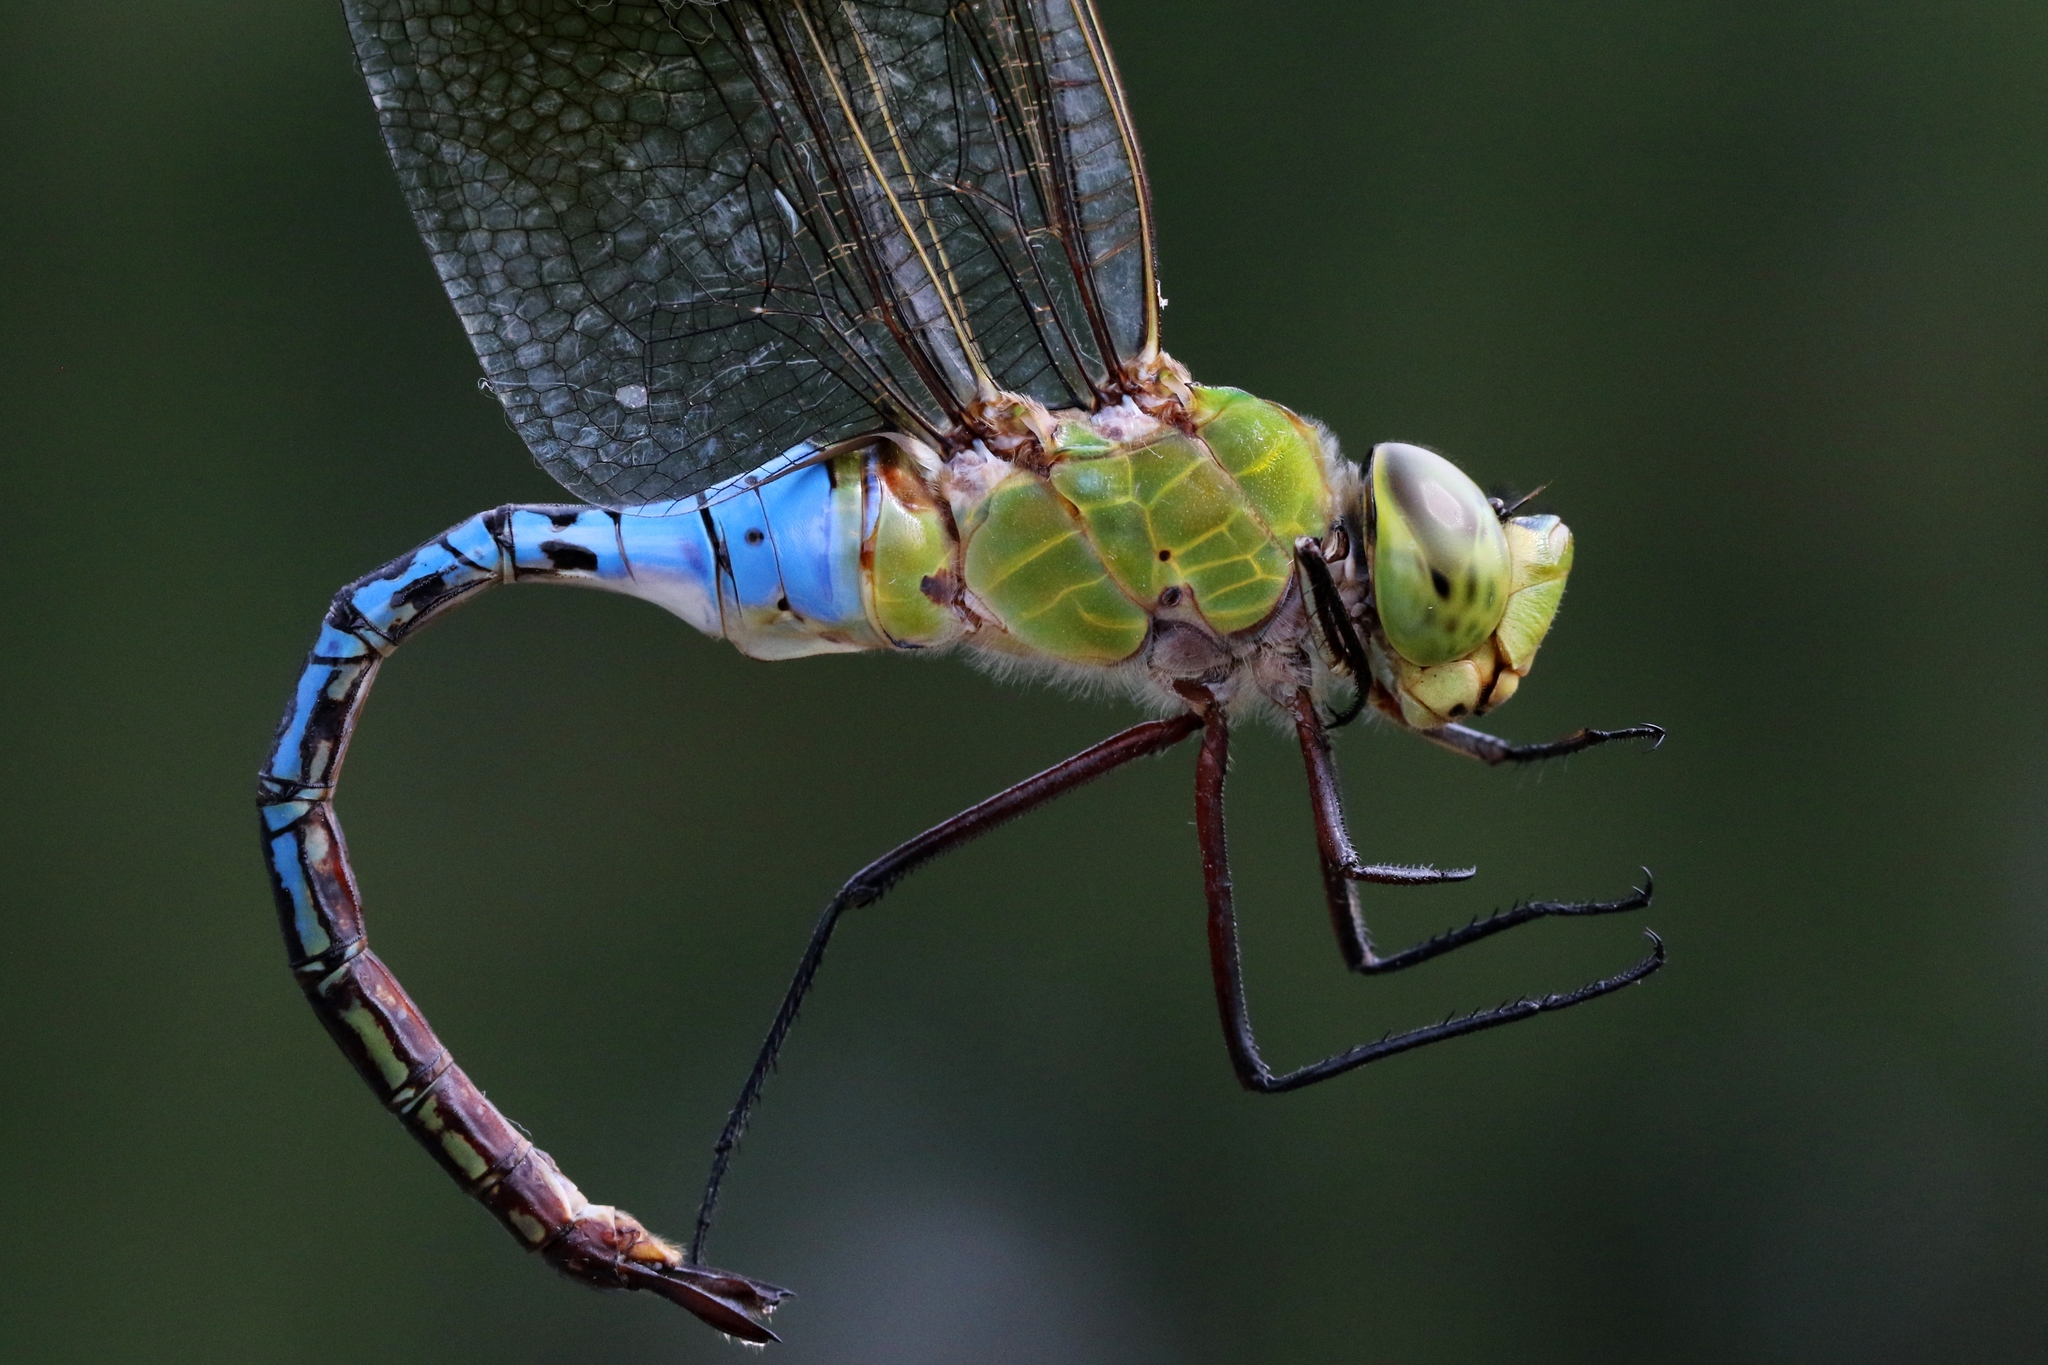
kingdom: Animalia
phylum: Arthropoda
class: Insecta
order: Odonata
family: Aeshnidae
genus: Anax
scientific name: Anax junius
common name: Common green darner
